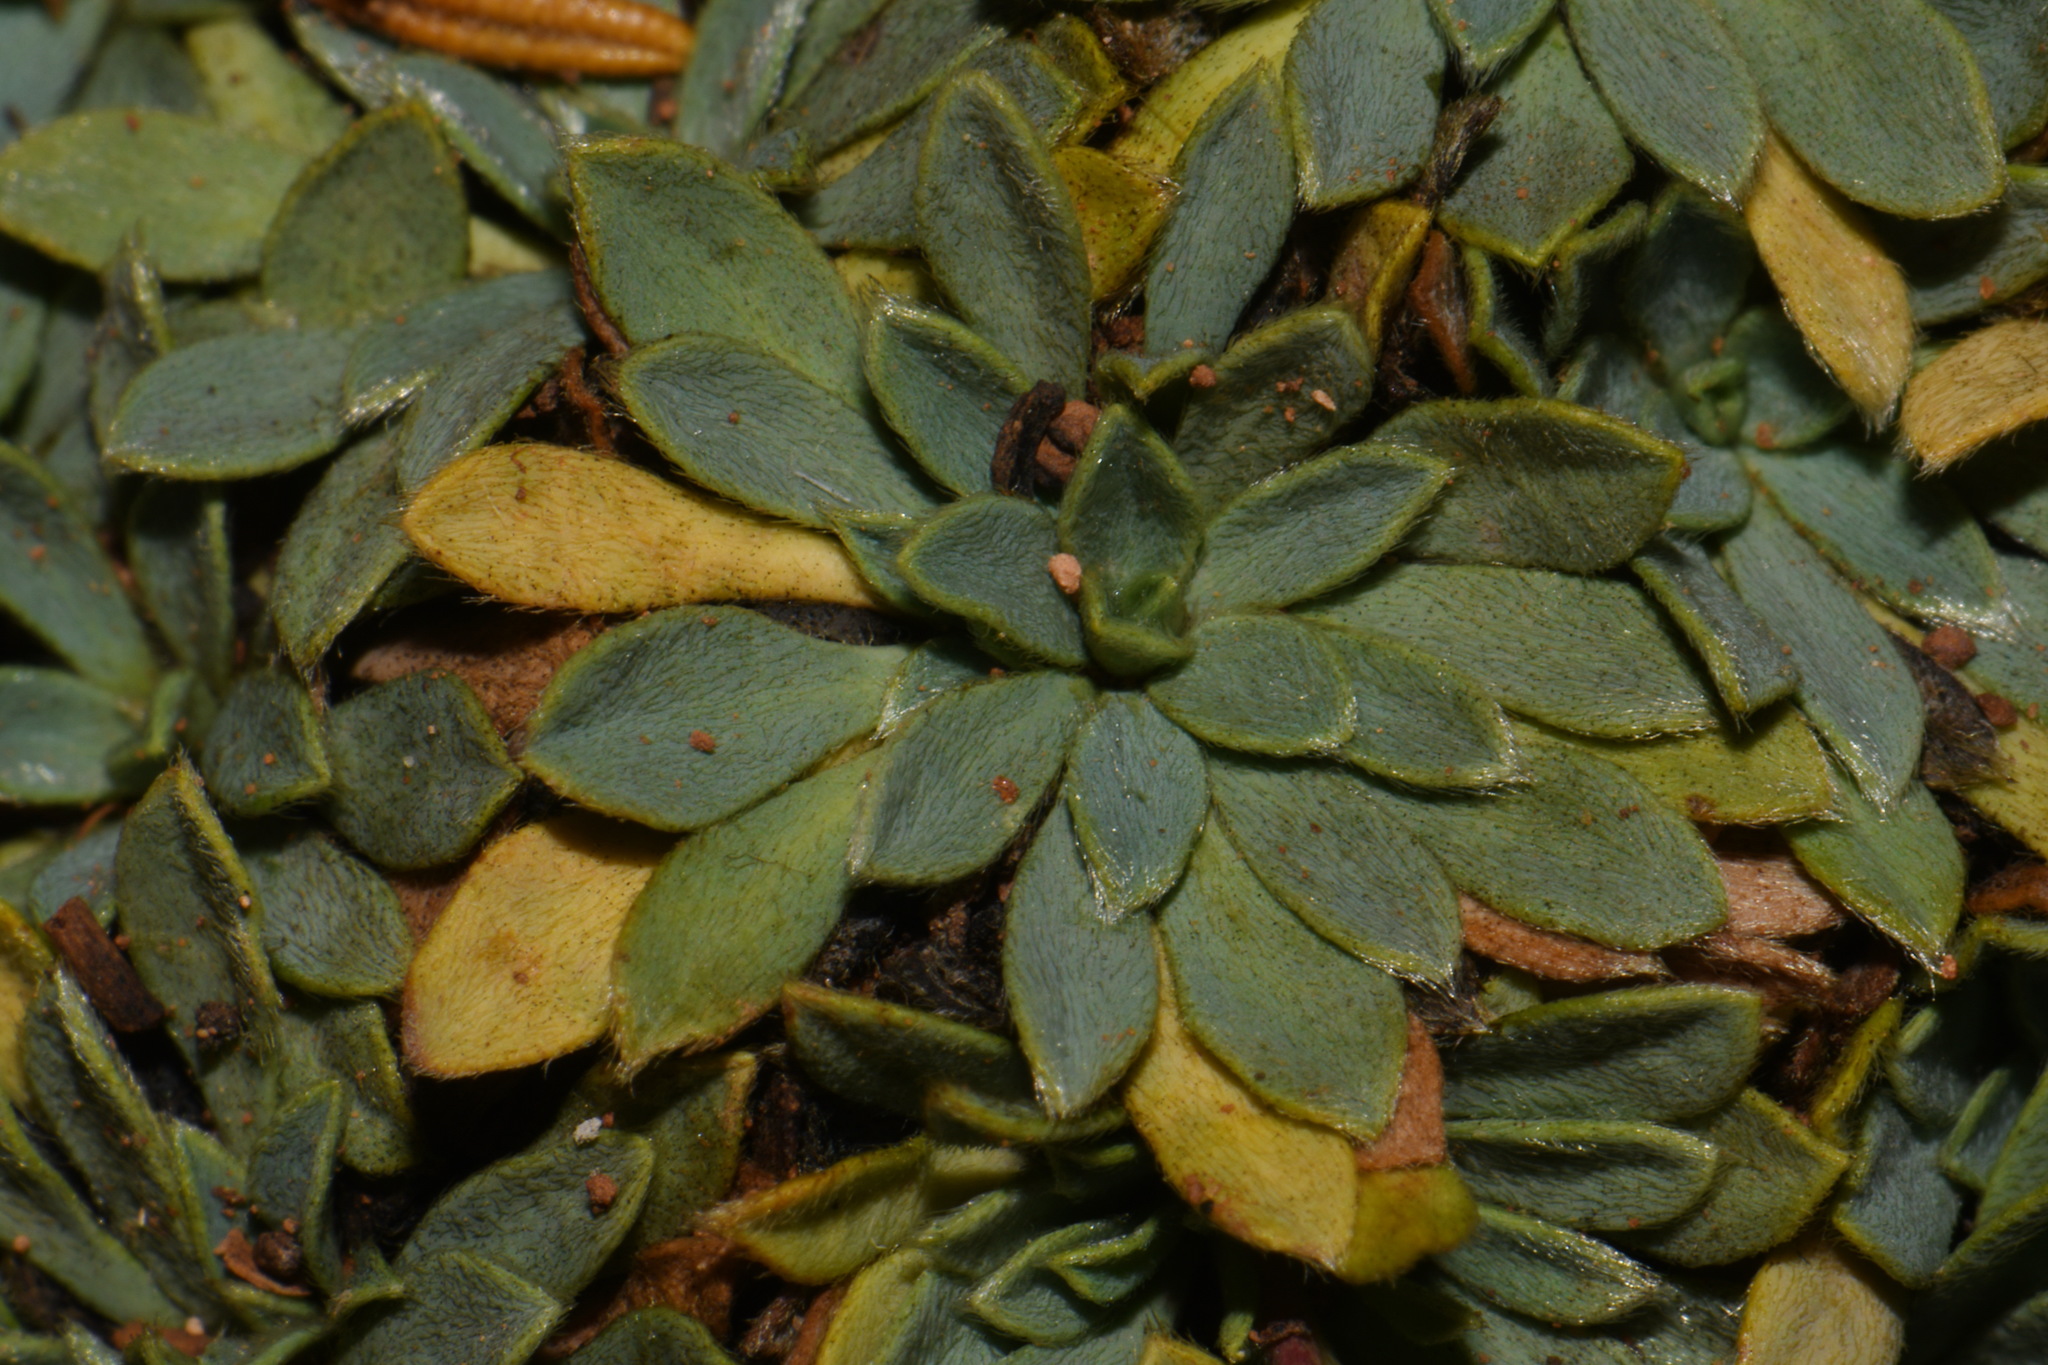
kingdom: Plantae
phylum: Tracheophyta
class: Magnoliopsida
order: Rosales
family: Rosaceae
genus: Petrophytum
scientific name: Petrophytum caespitosum
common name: Mat rockspirea
